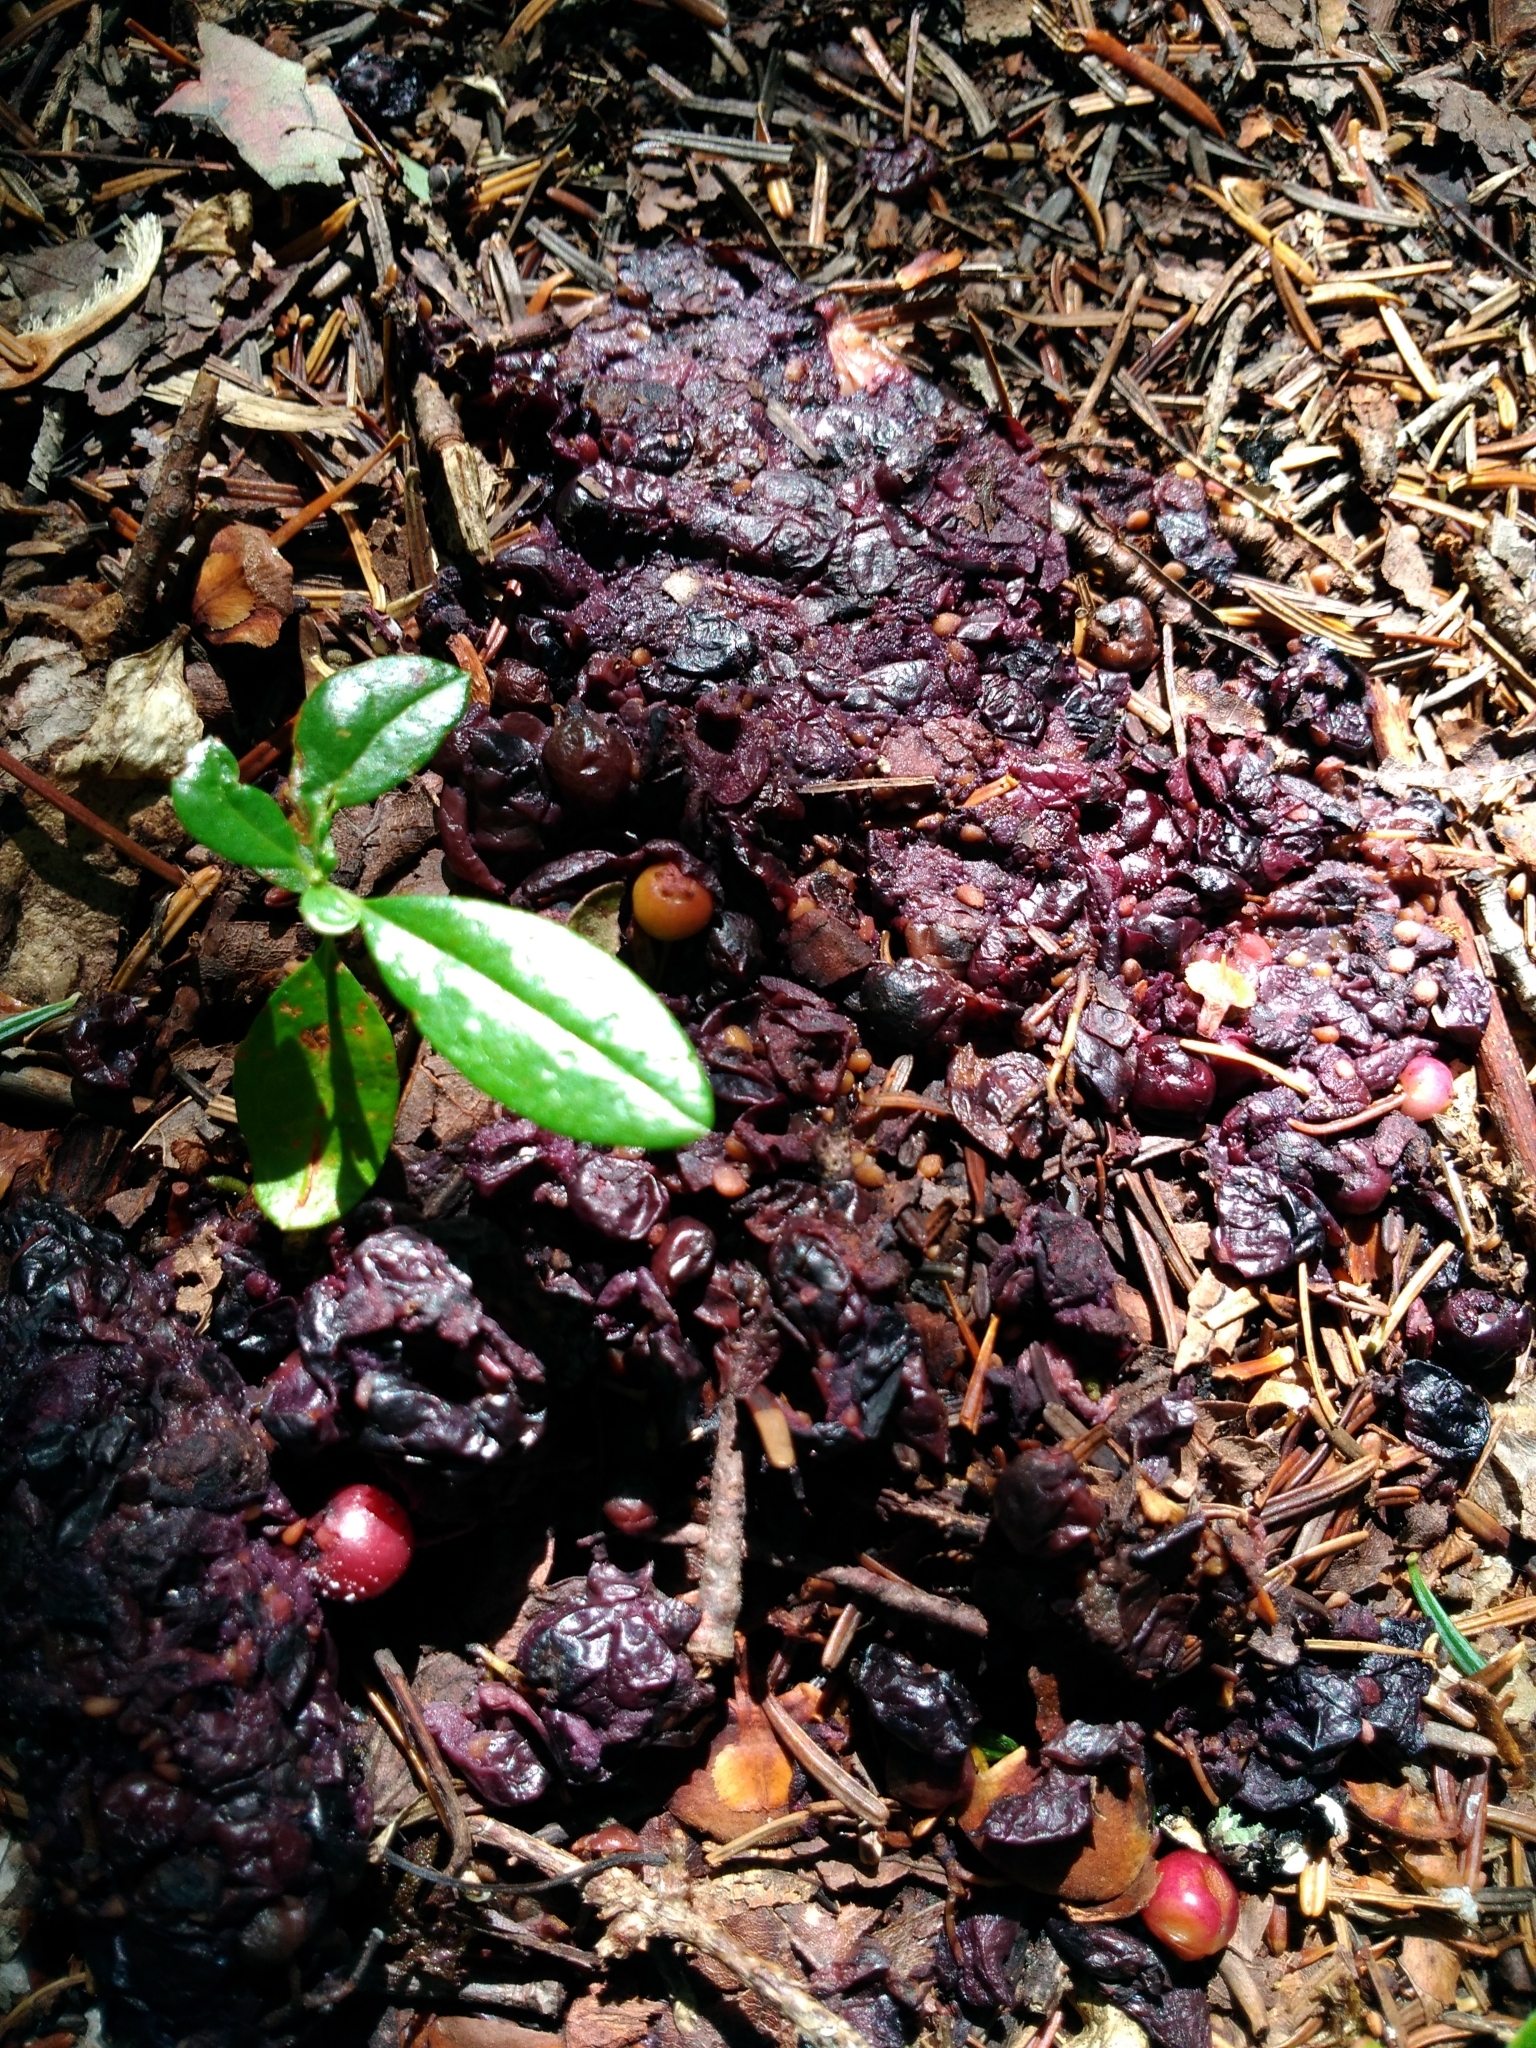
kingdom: Animalia
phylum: Chordata
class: Mammalia
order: Carnivora
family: Ursidae
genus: Ursus
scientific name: Ursus americanus
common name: American black bear
